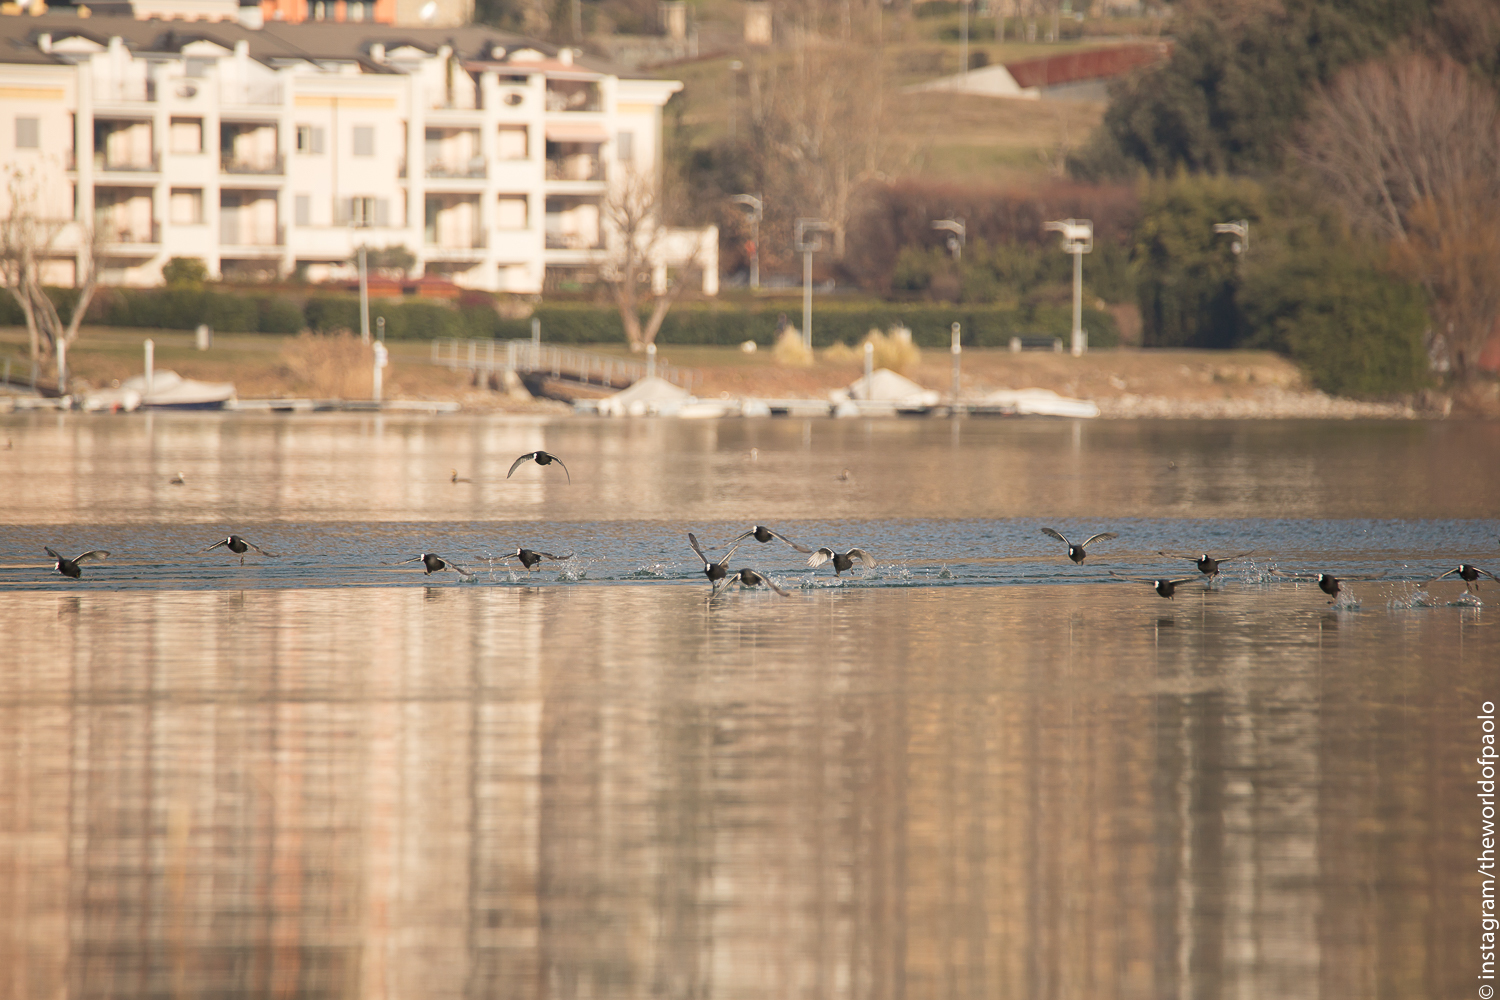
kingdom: Animalia
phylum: Chordata
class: Aves
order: Gruiformes
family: Rallidae
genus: Fulica
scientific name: Fulica atra
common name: Eurasian coot
